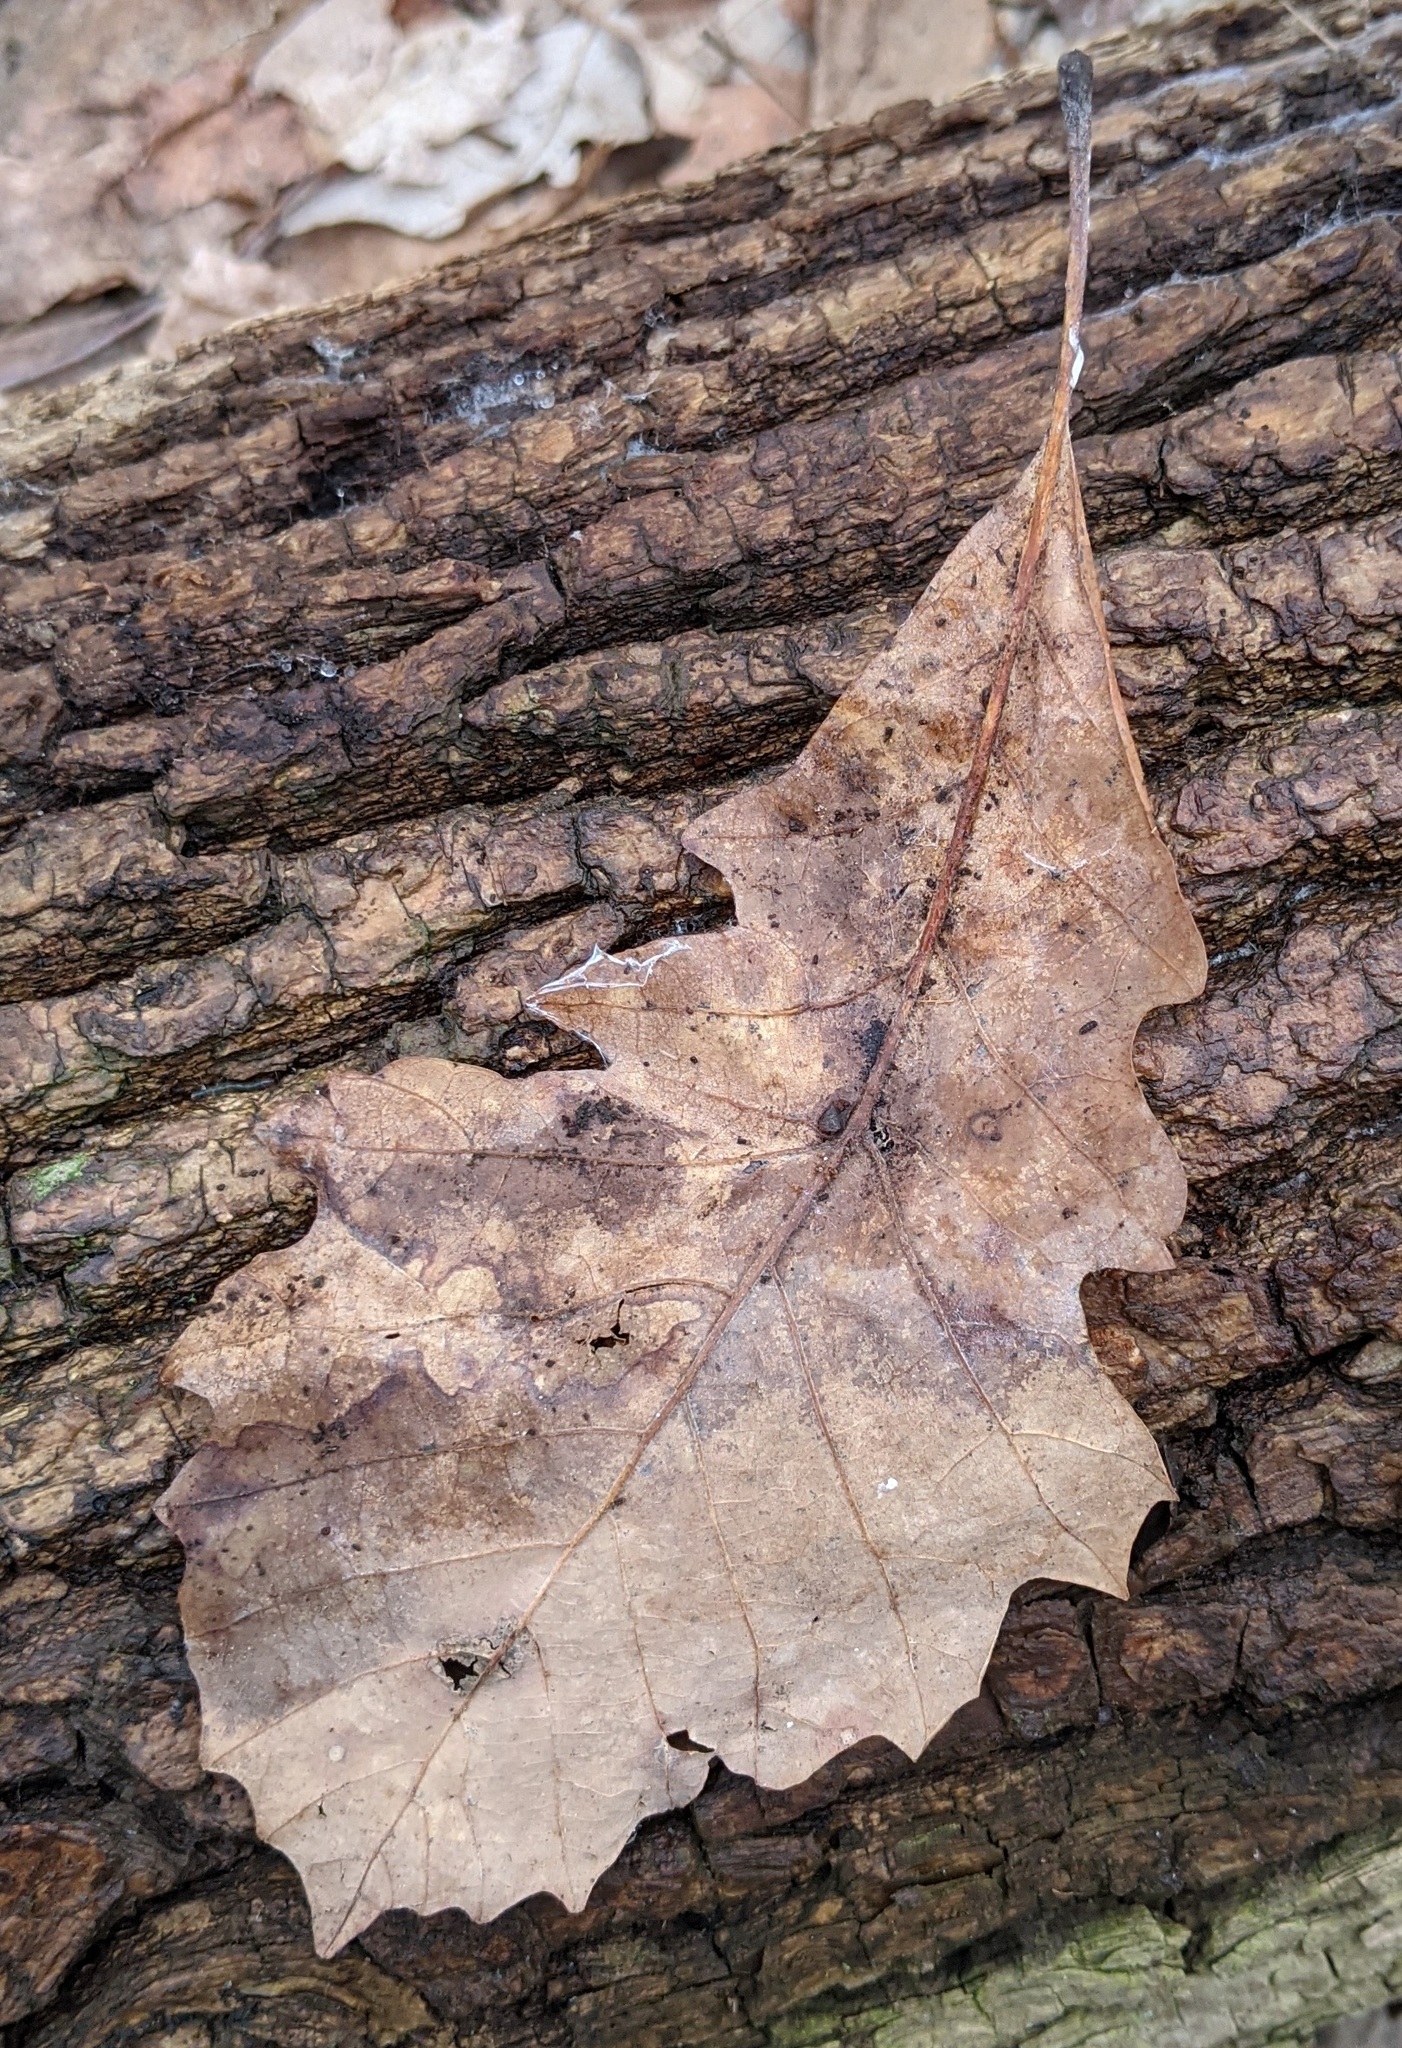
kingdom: Plantae
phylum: Tracheophyta
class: Magnoliopsida
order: Fagales
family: Fagaceae
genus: Quercus
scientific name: Quercus bicolor
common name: Swamp white oak
